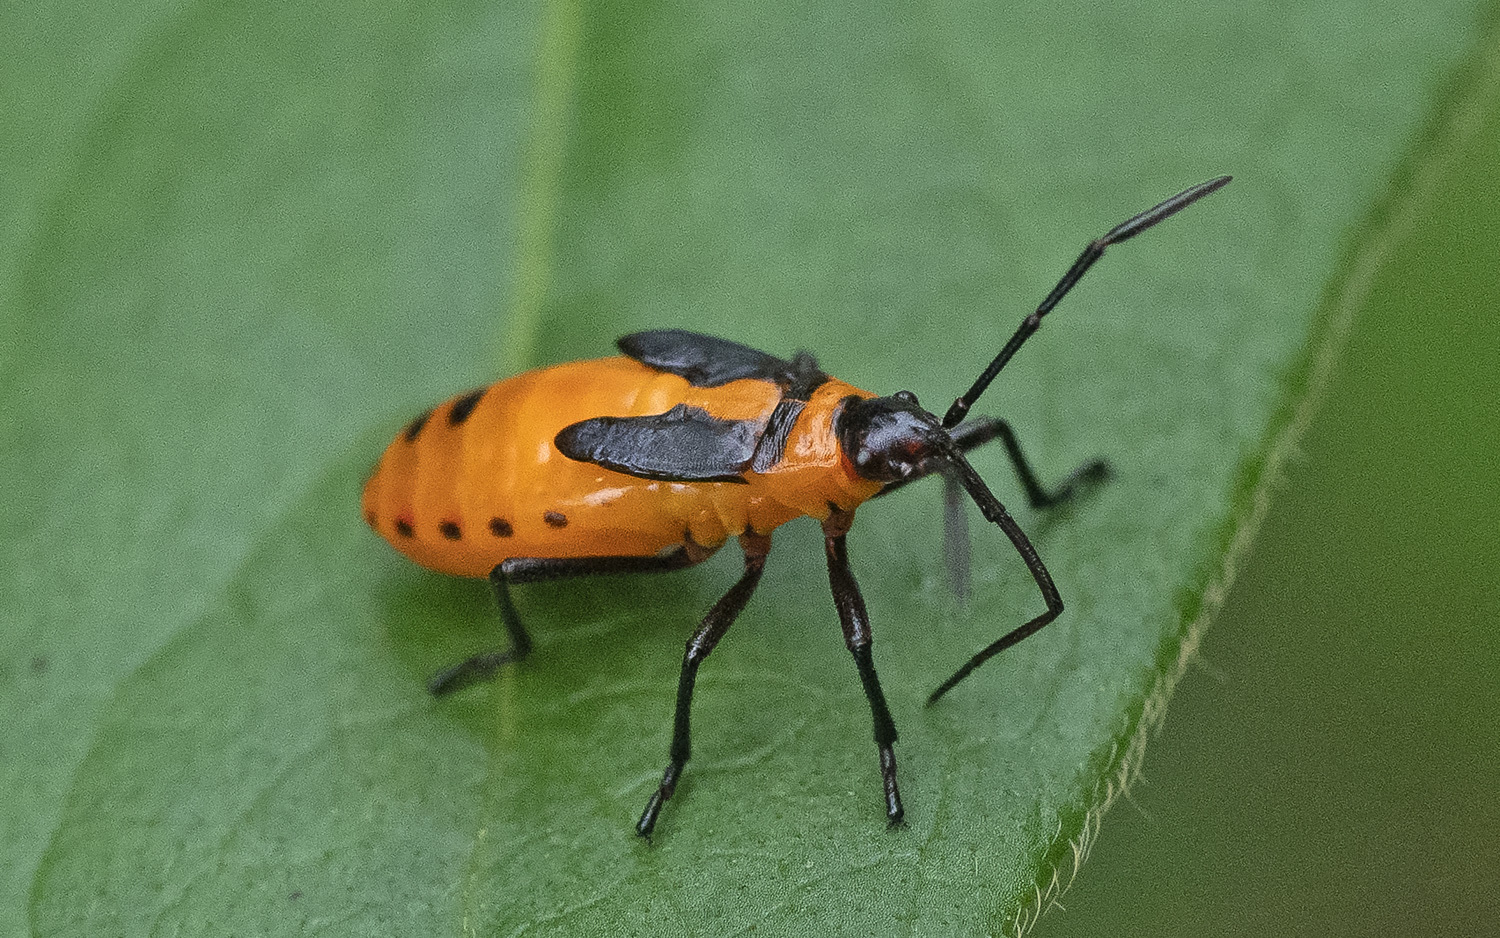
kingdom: Animalia
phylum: Arthropoda
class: Insecta
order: Hemiptera
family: Lygaeidae
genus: Oncopeltus
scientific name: Oncopeltus fasciatus
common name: Large milkweed bug
